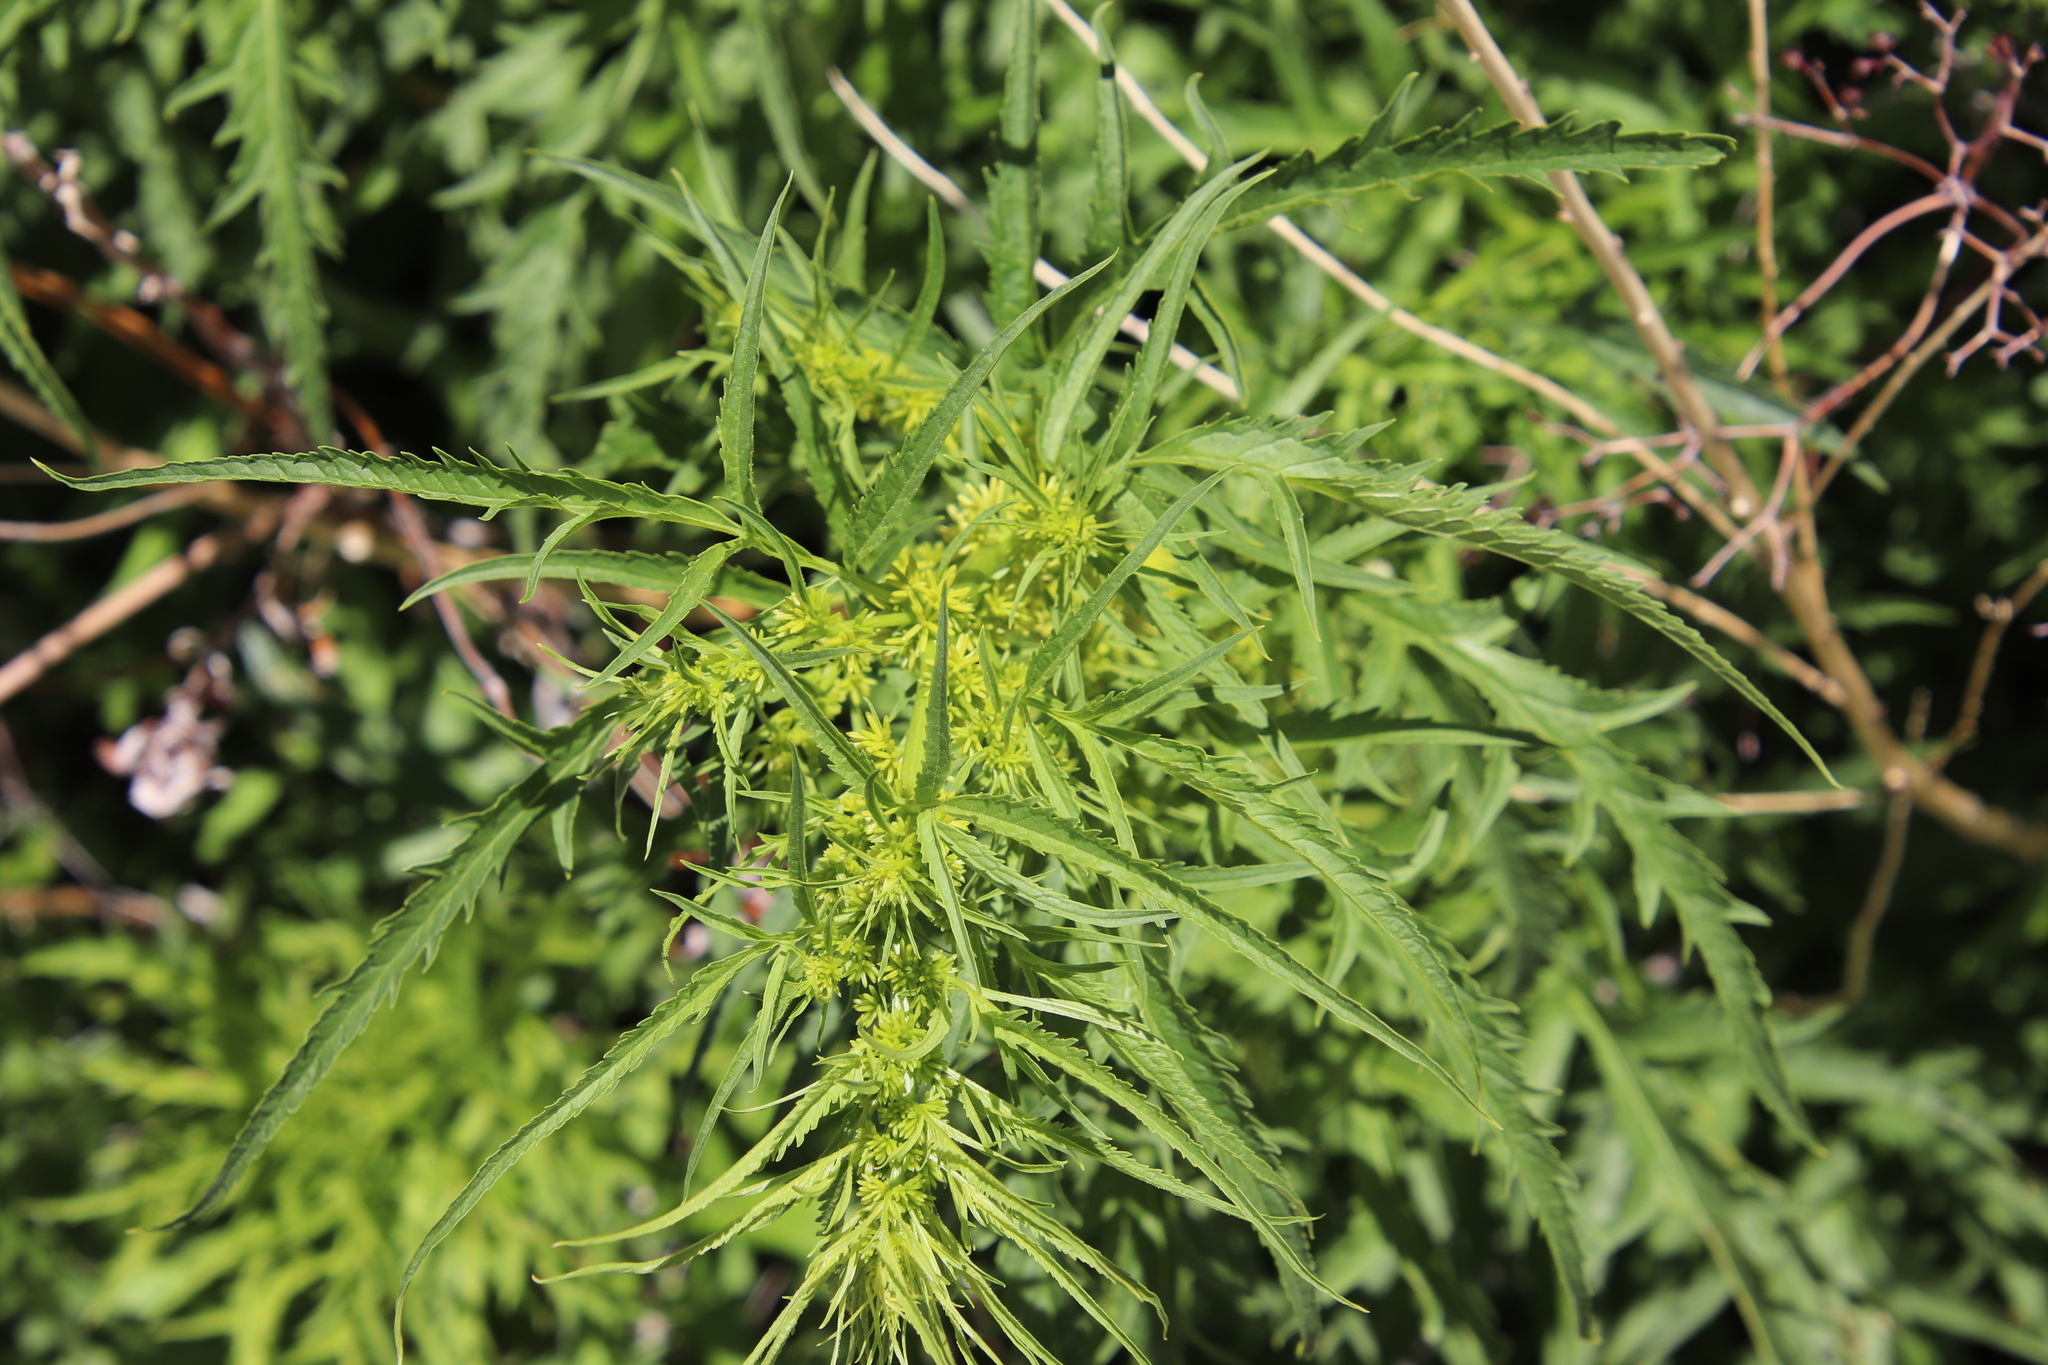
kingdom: Plantae
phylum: Tracheophyta
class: Magnoliopsida
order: Cucurbitales
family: Datiscaceae
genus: Datisca
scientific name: Datisca glomerata
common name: Durango-root
